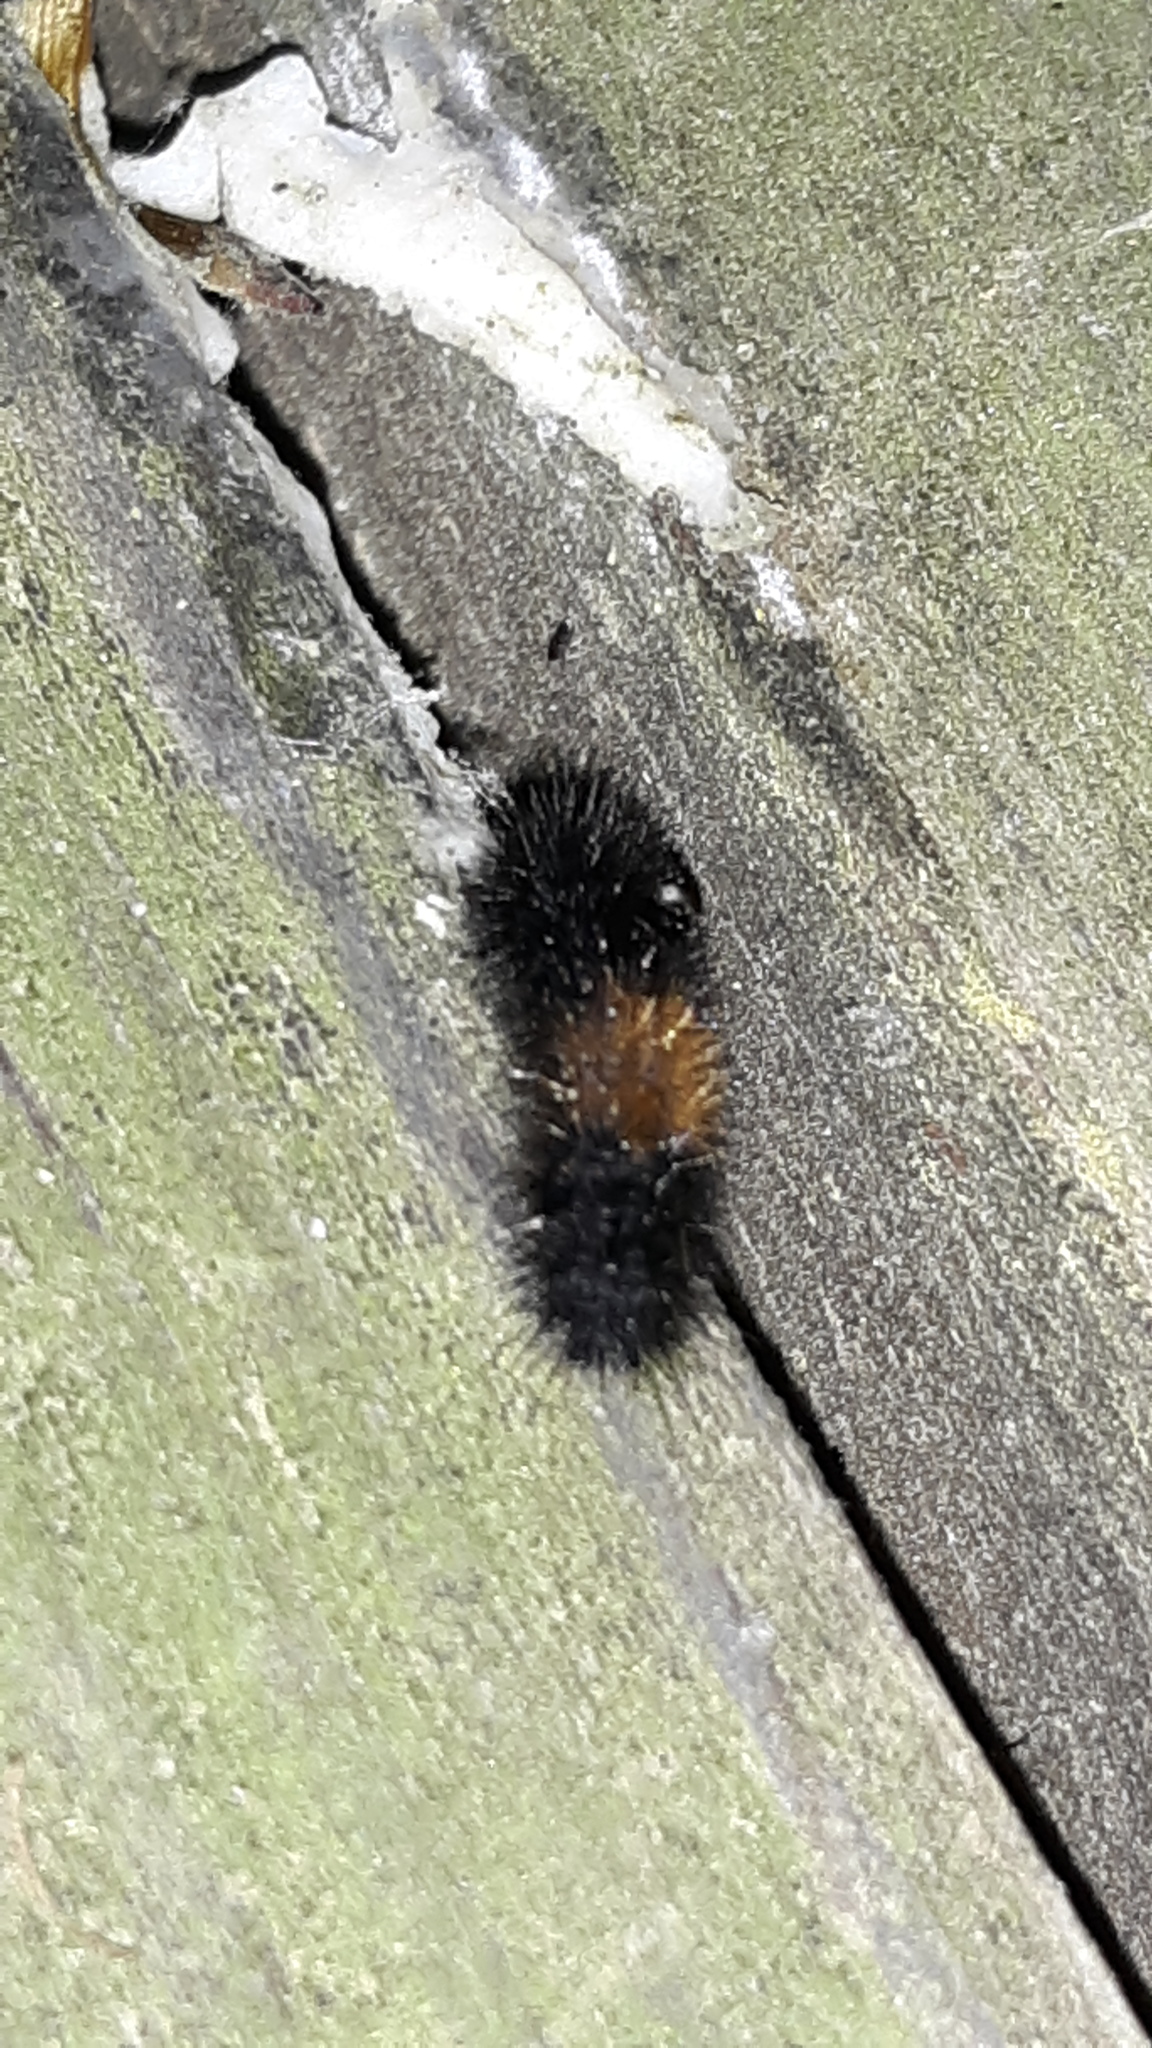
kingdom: Animalia
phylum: Arthropoda
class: Insecta
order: Lepidoptera
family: Erebidae
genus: Pyrrharctia
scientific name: Pyrrharctia isabella
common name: Isabella tiger moth
